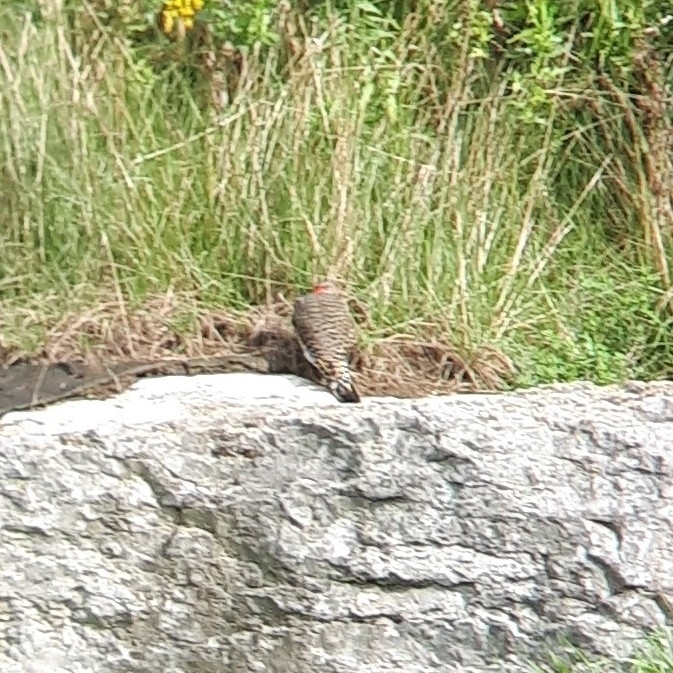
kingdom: Animalia
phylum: Chordata
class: Aves
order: Piciformes
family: Picidae
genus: Colaptes
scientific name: Colaptes auratus
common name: Northern flicker
